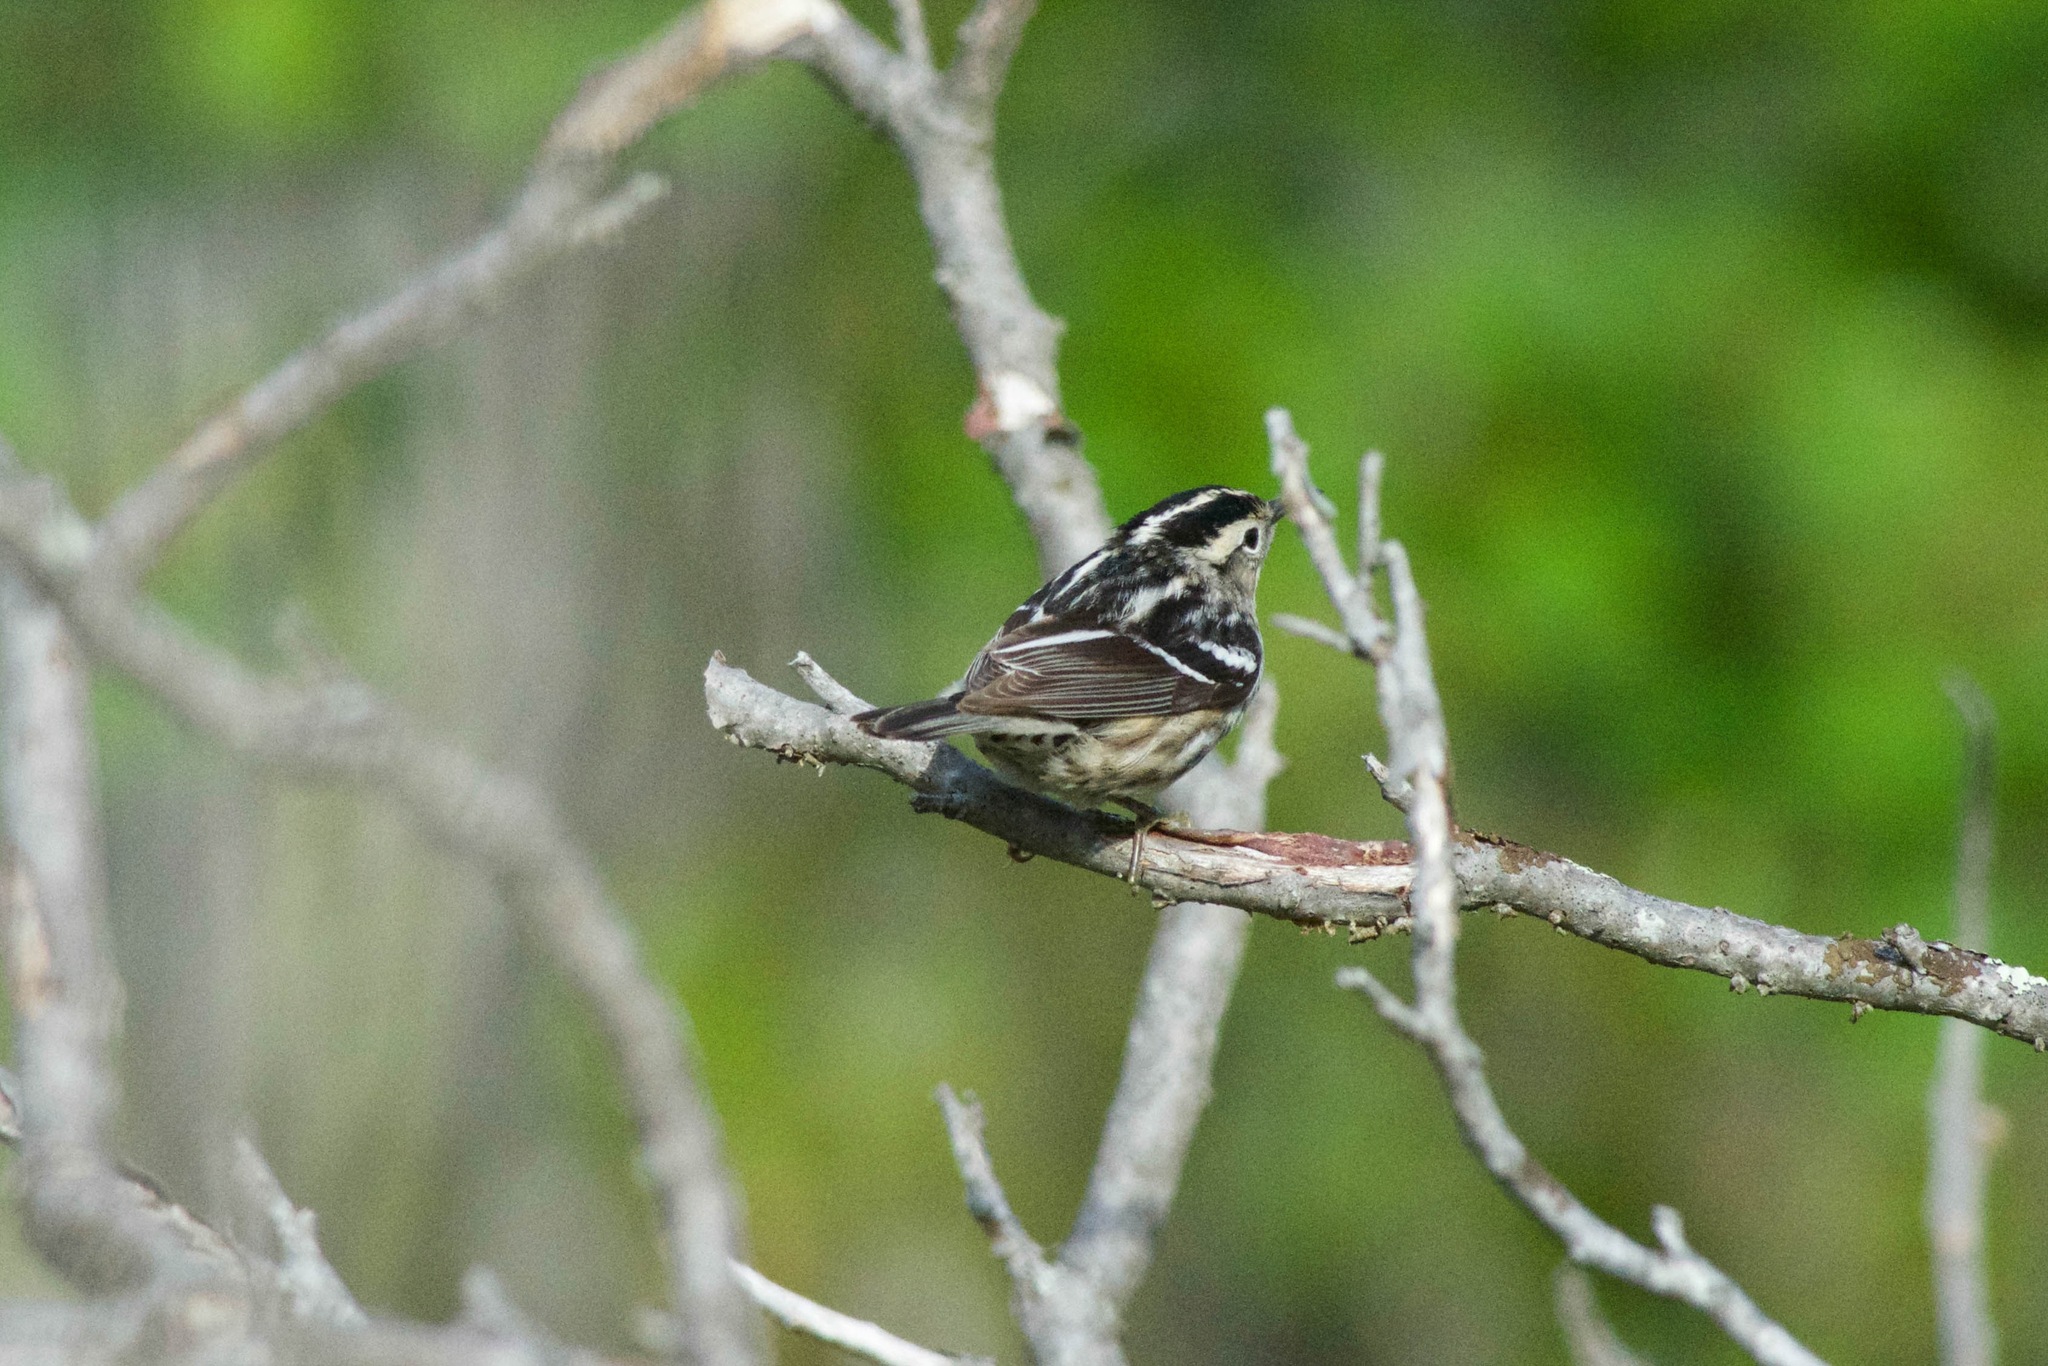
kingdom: Animalia
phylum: Chordata
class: Aves
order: Passeriformes
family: Parulidae
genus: Mniotilta
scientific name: Mniotilta varia
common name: Black-and-white warbler
